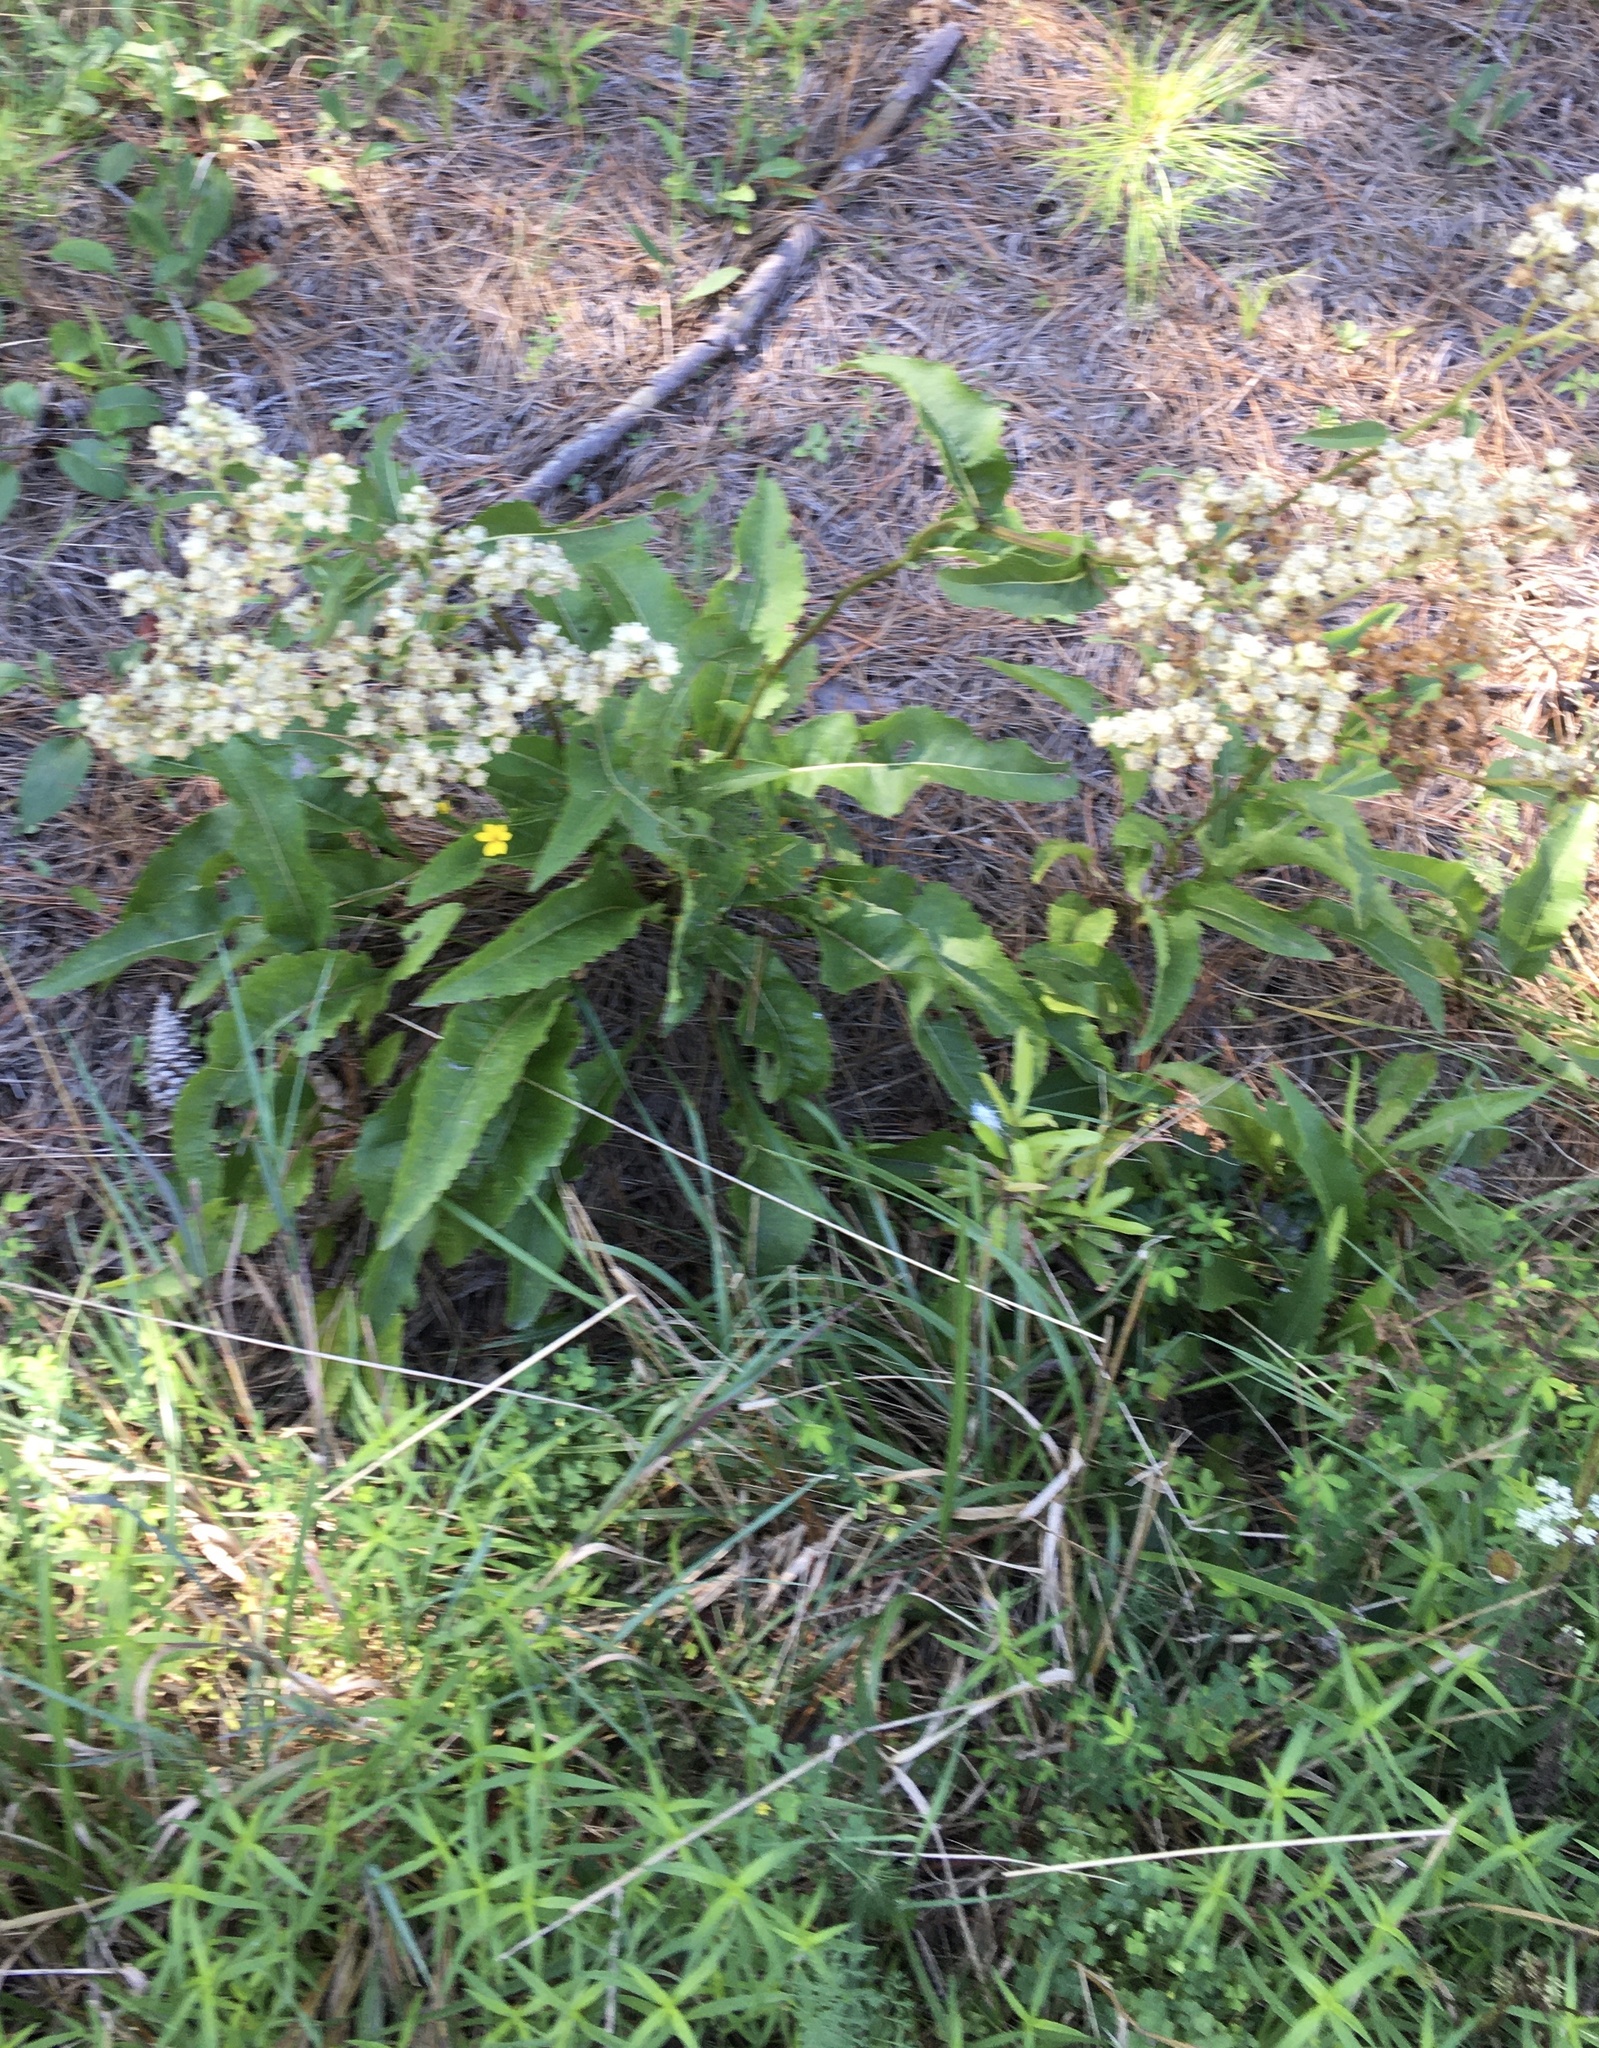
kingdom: Plantae
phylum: Tracheophyta
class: Magnoliopsida
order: Asterales
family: Asteraceae
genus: Parthenium
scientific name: Parthenium integrifolium
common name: American feverfew
